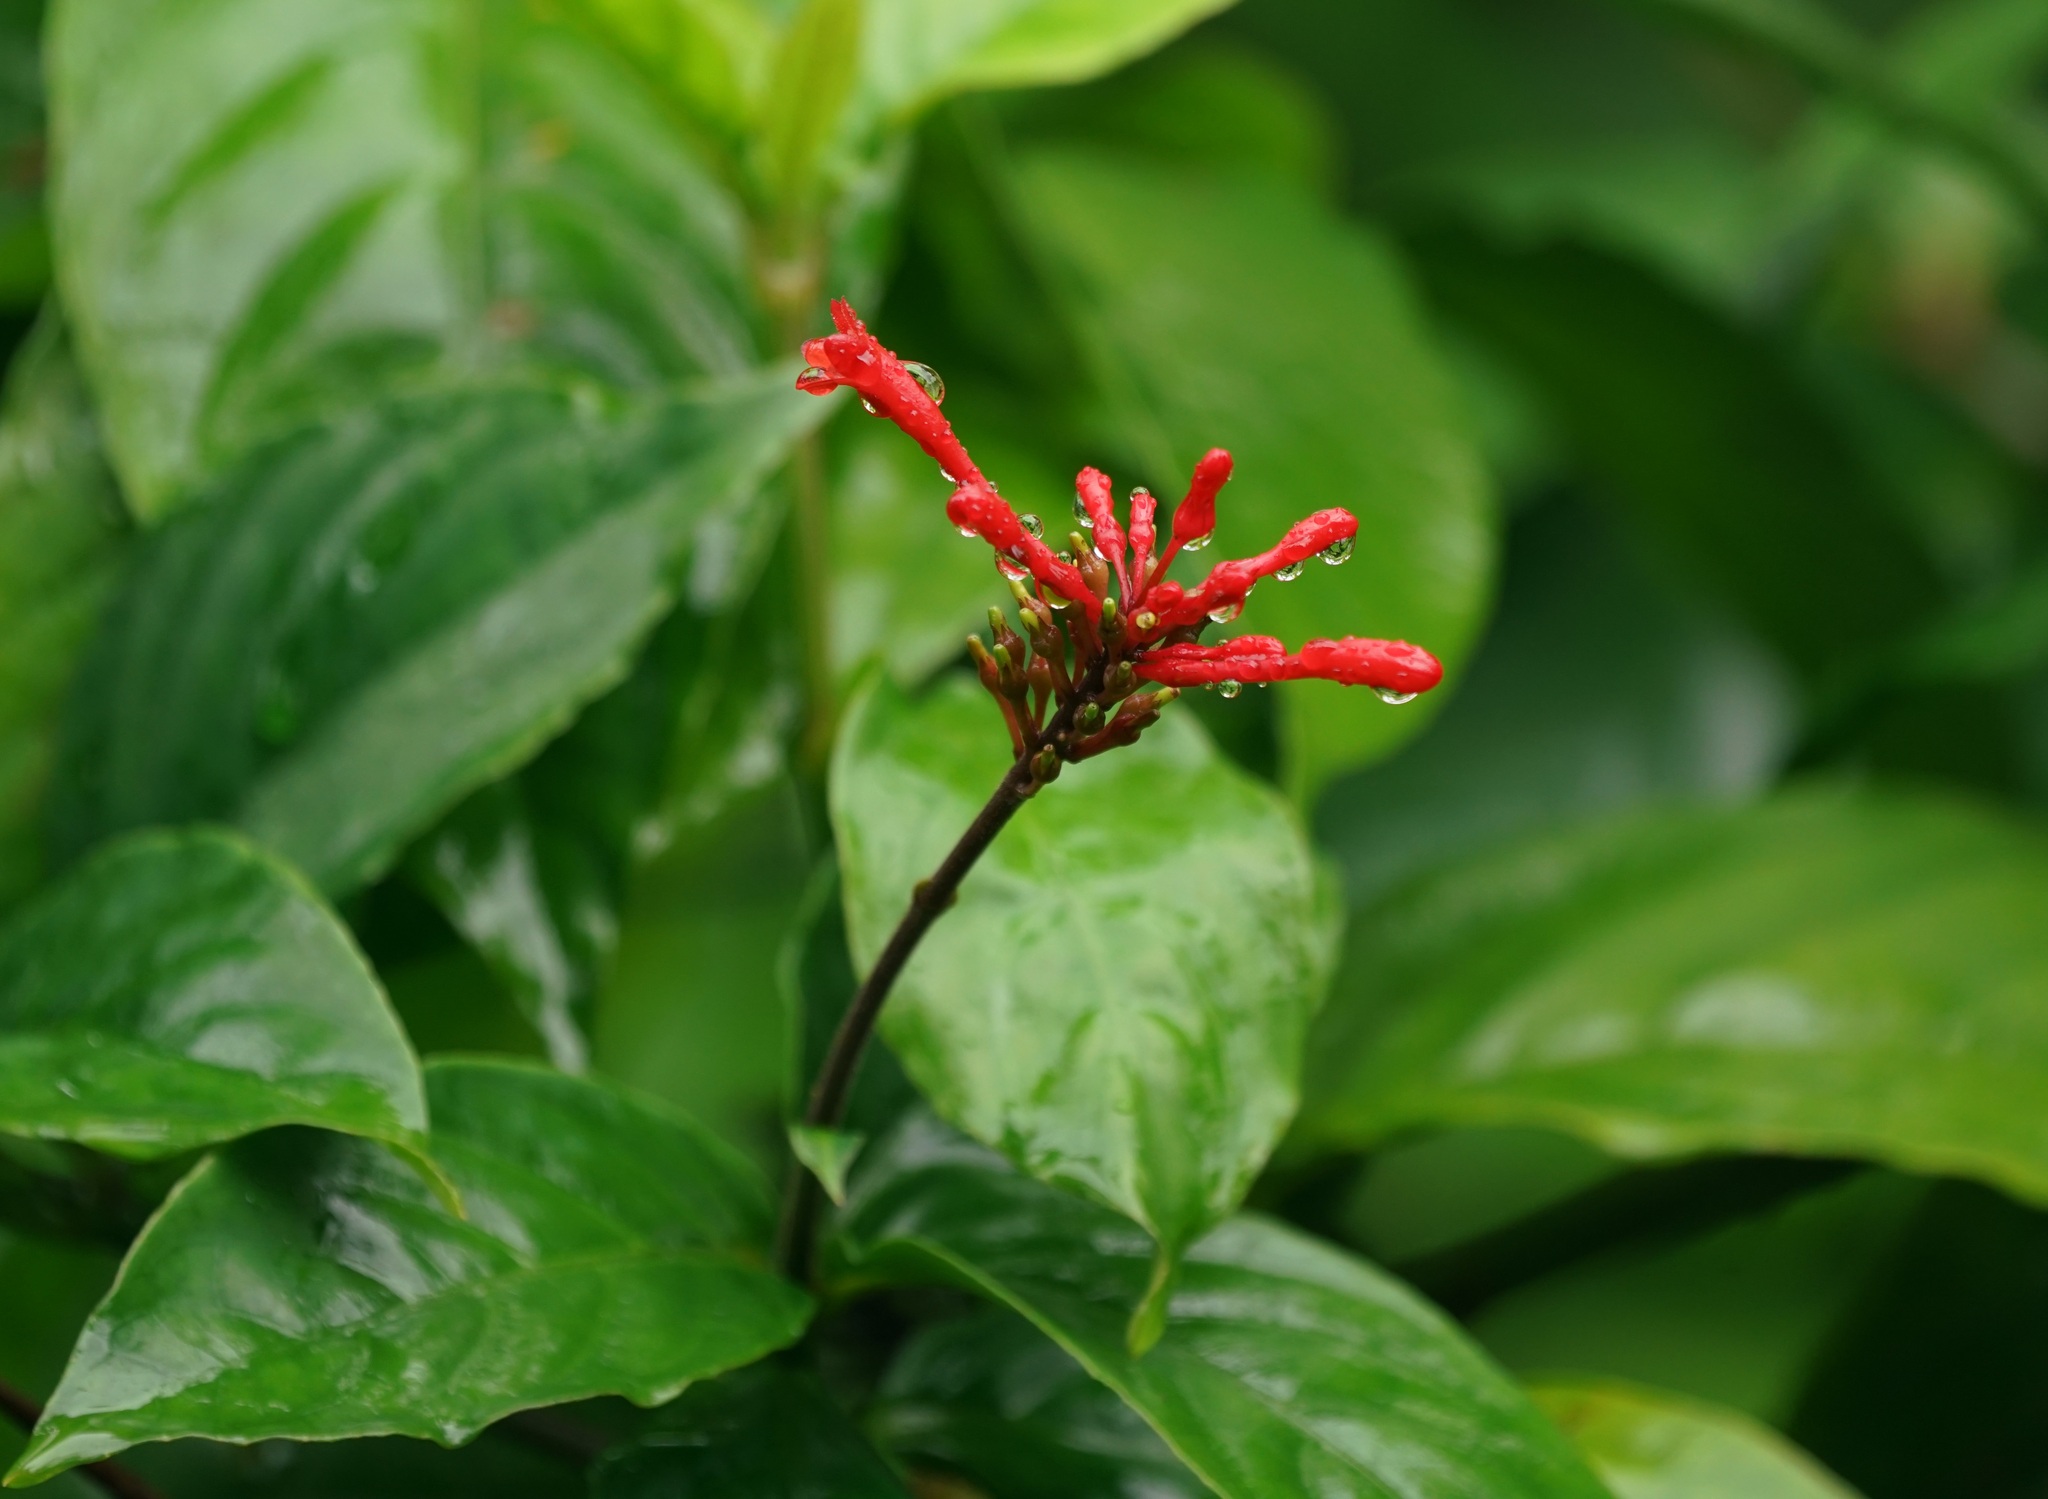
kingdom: Plantae
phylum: Tracheophyta
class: Magnoliopsida
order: Lamiales
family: Acanthaceae
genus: Odontonema
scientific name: Odontonema cuspidatum
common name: Mottled toothedthread
